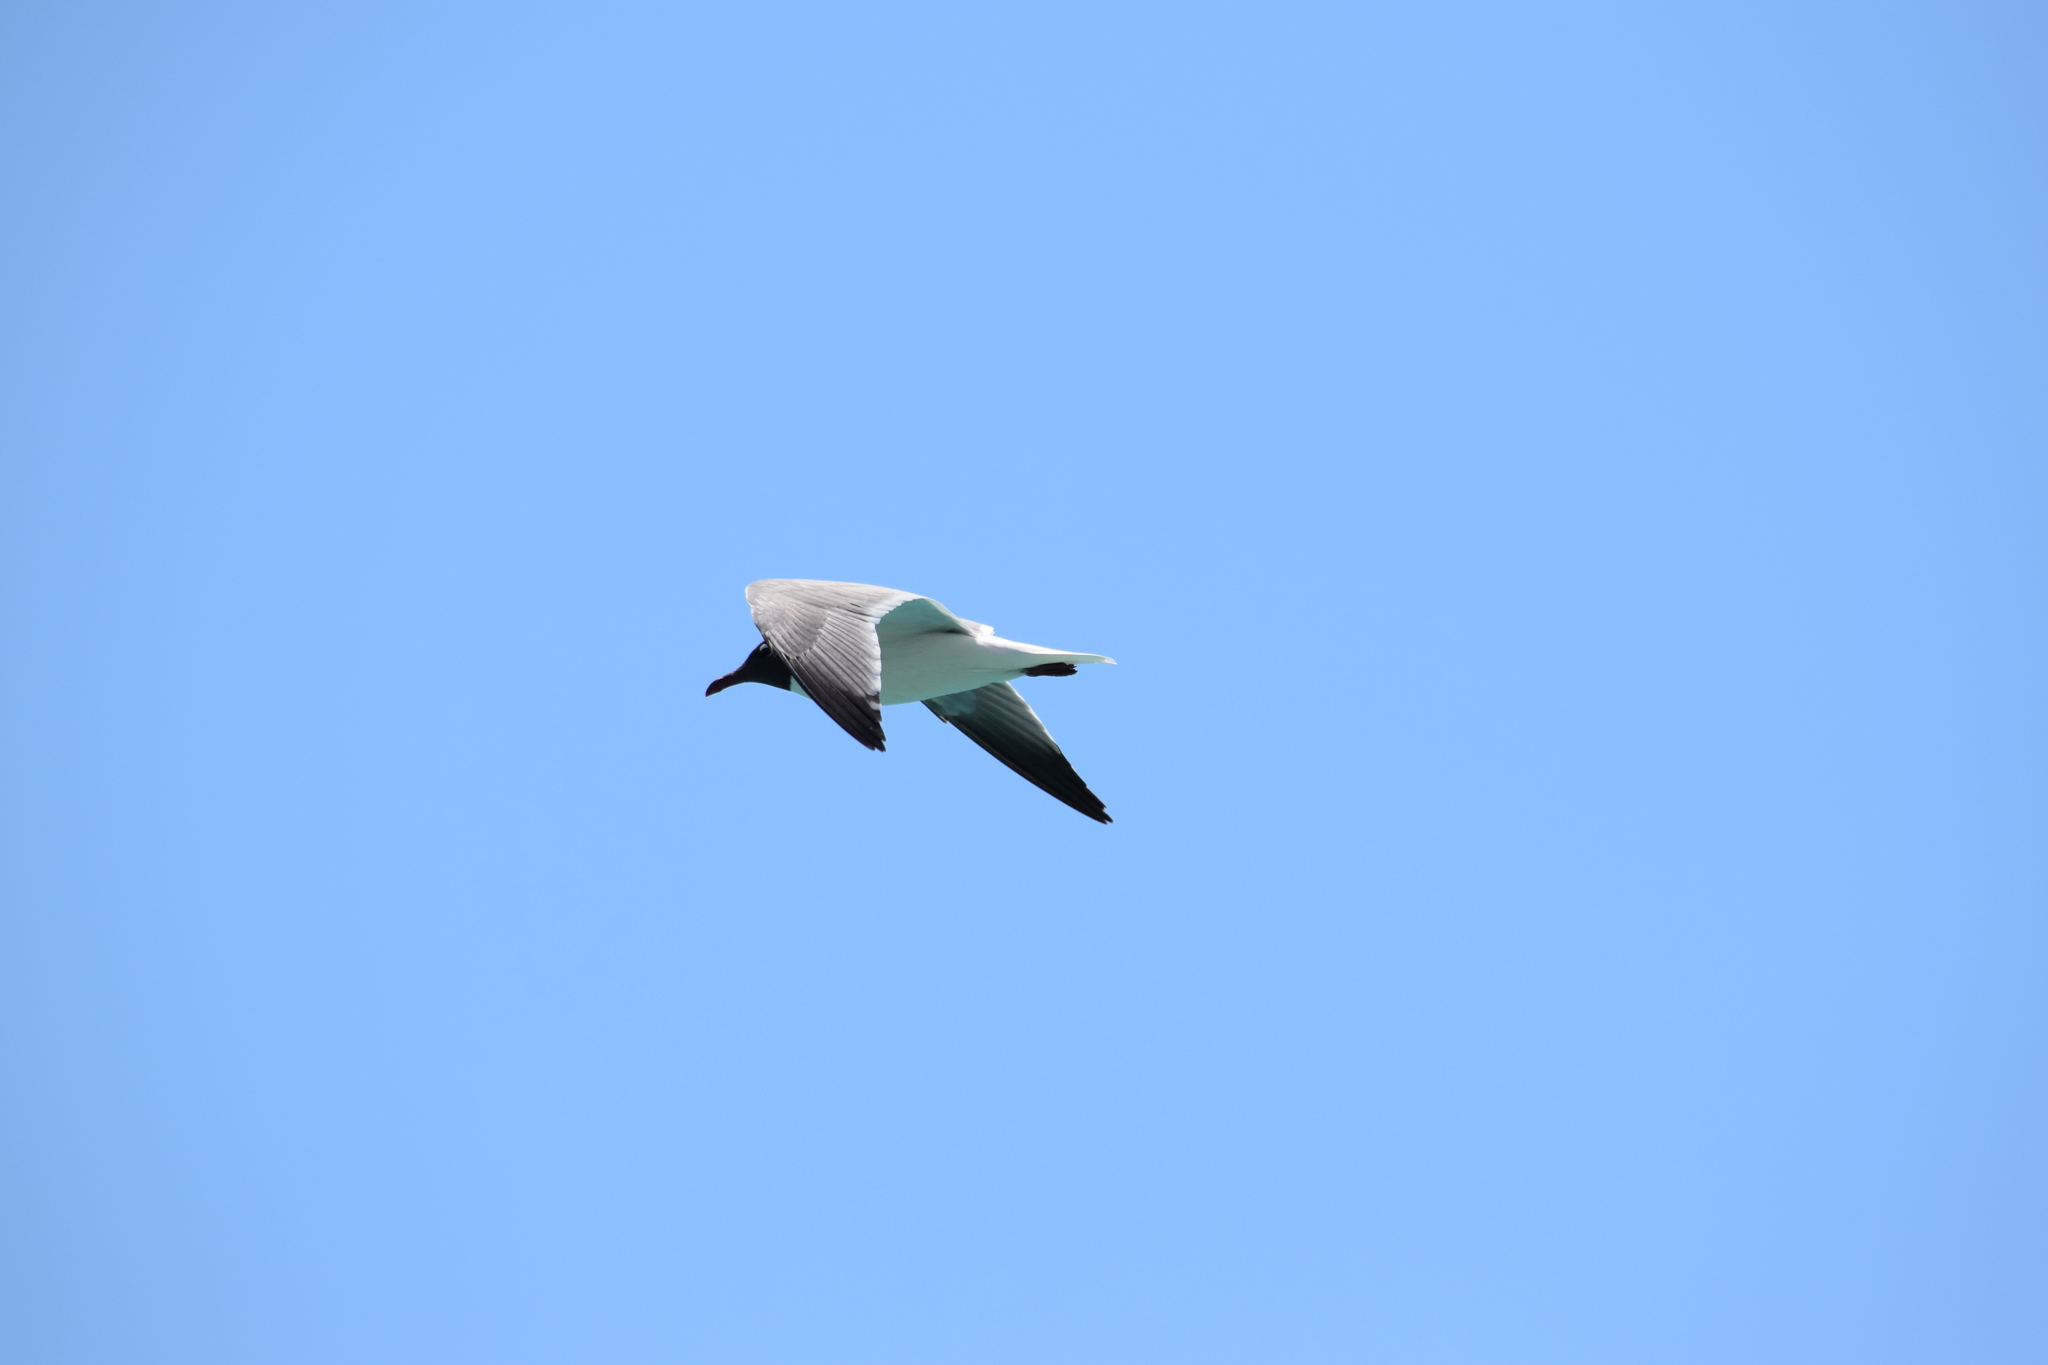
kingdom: Animalia
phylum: Chordata
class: Aves
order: Charadriiformes
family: Laridae
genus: Leucophaeus
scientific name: Leucophaeus atricilla
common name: Laughing gull
